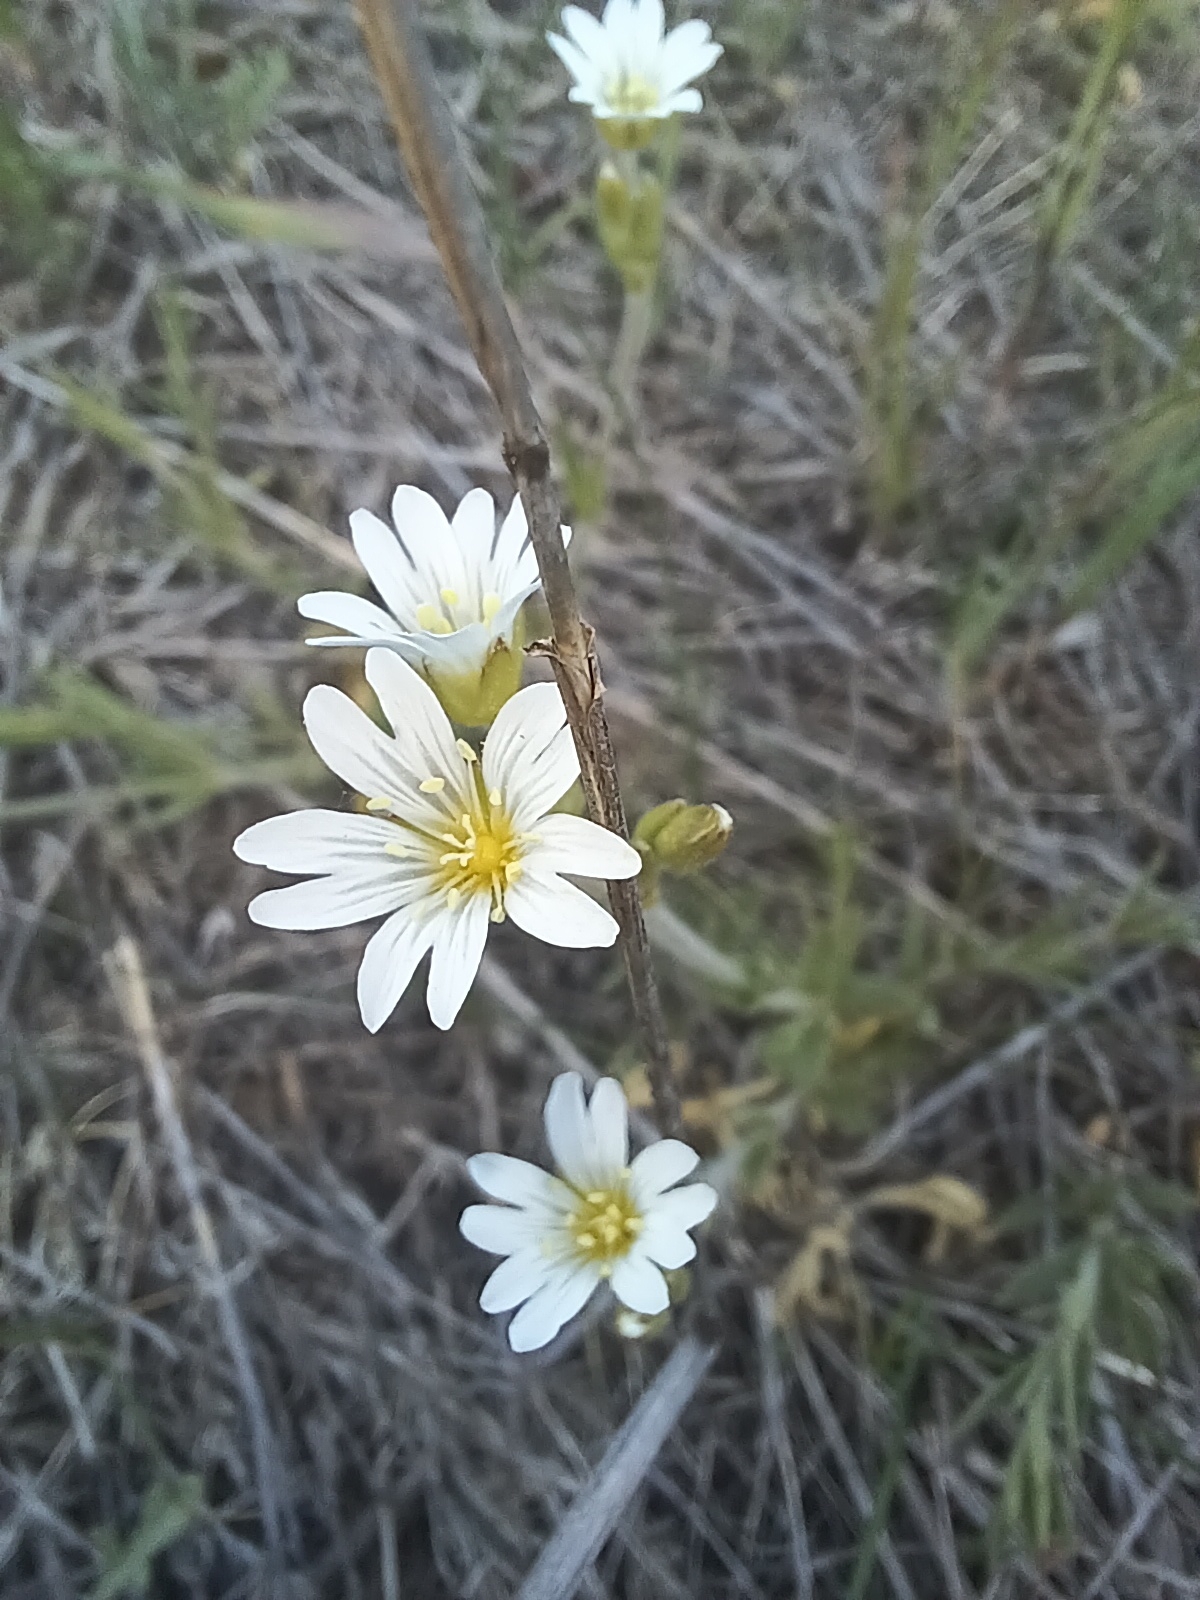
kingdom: Plantae
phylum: Tracheophyta
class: Magnoliopsida
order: Caryophyllales
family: Caryophyllaceae
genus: Cerastium
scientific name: Cerastium arvense
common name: Field mouse-ear
